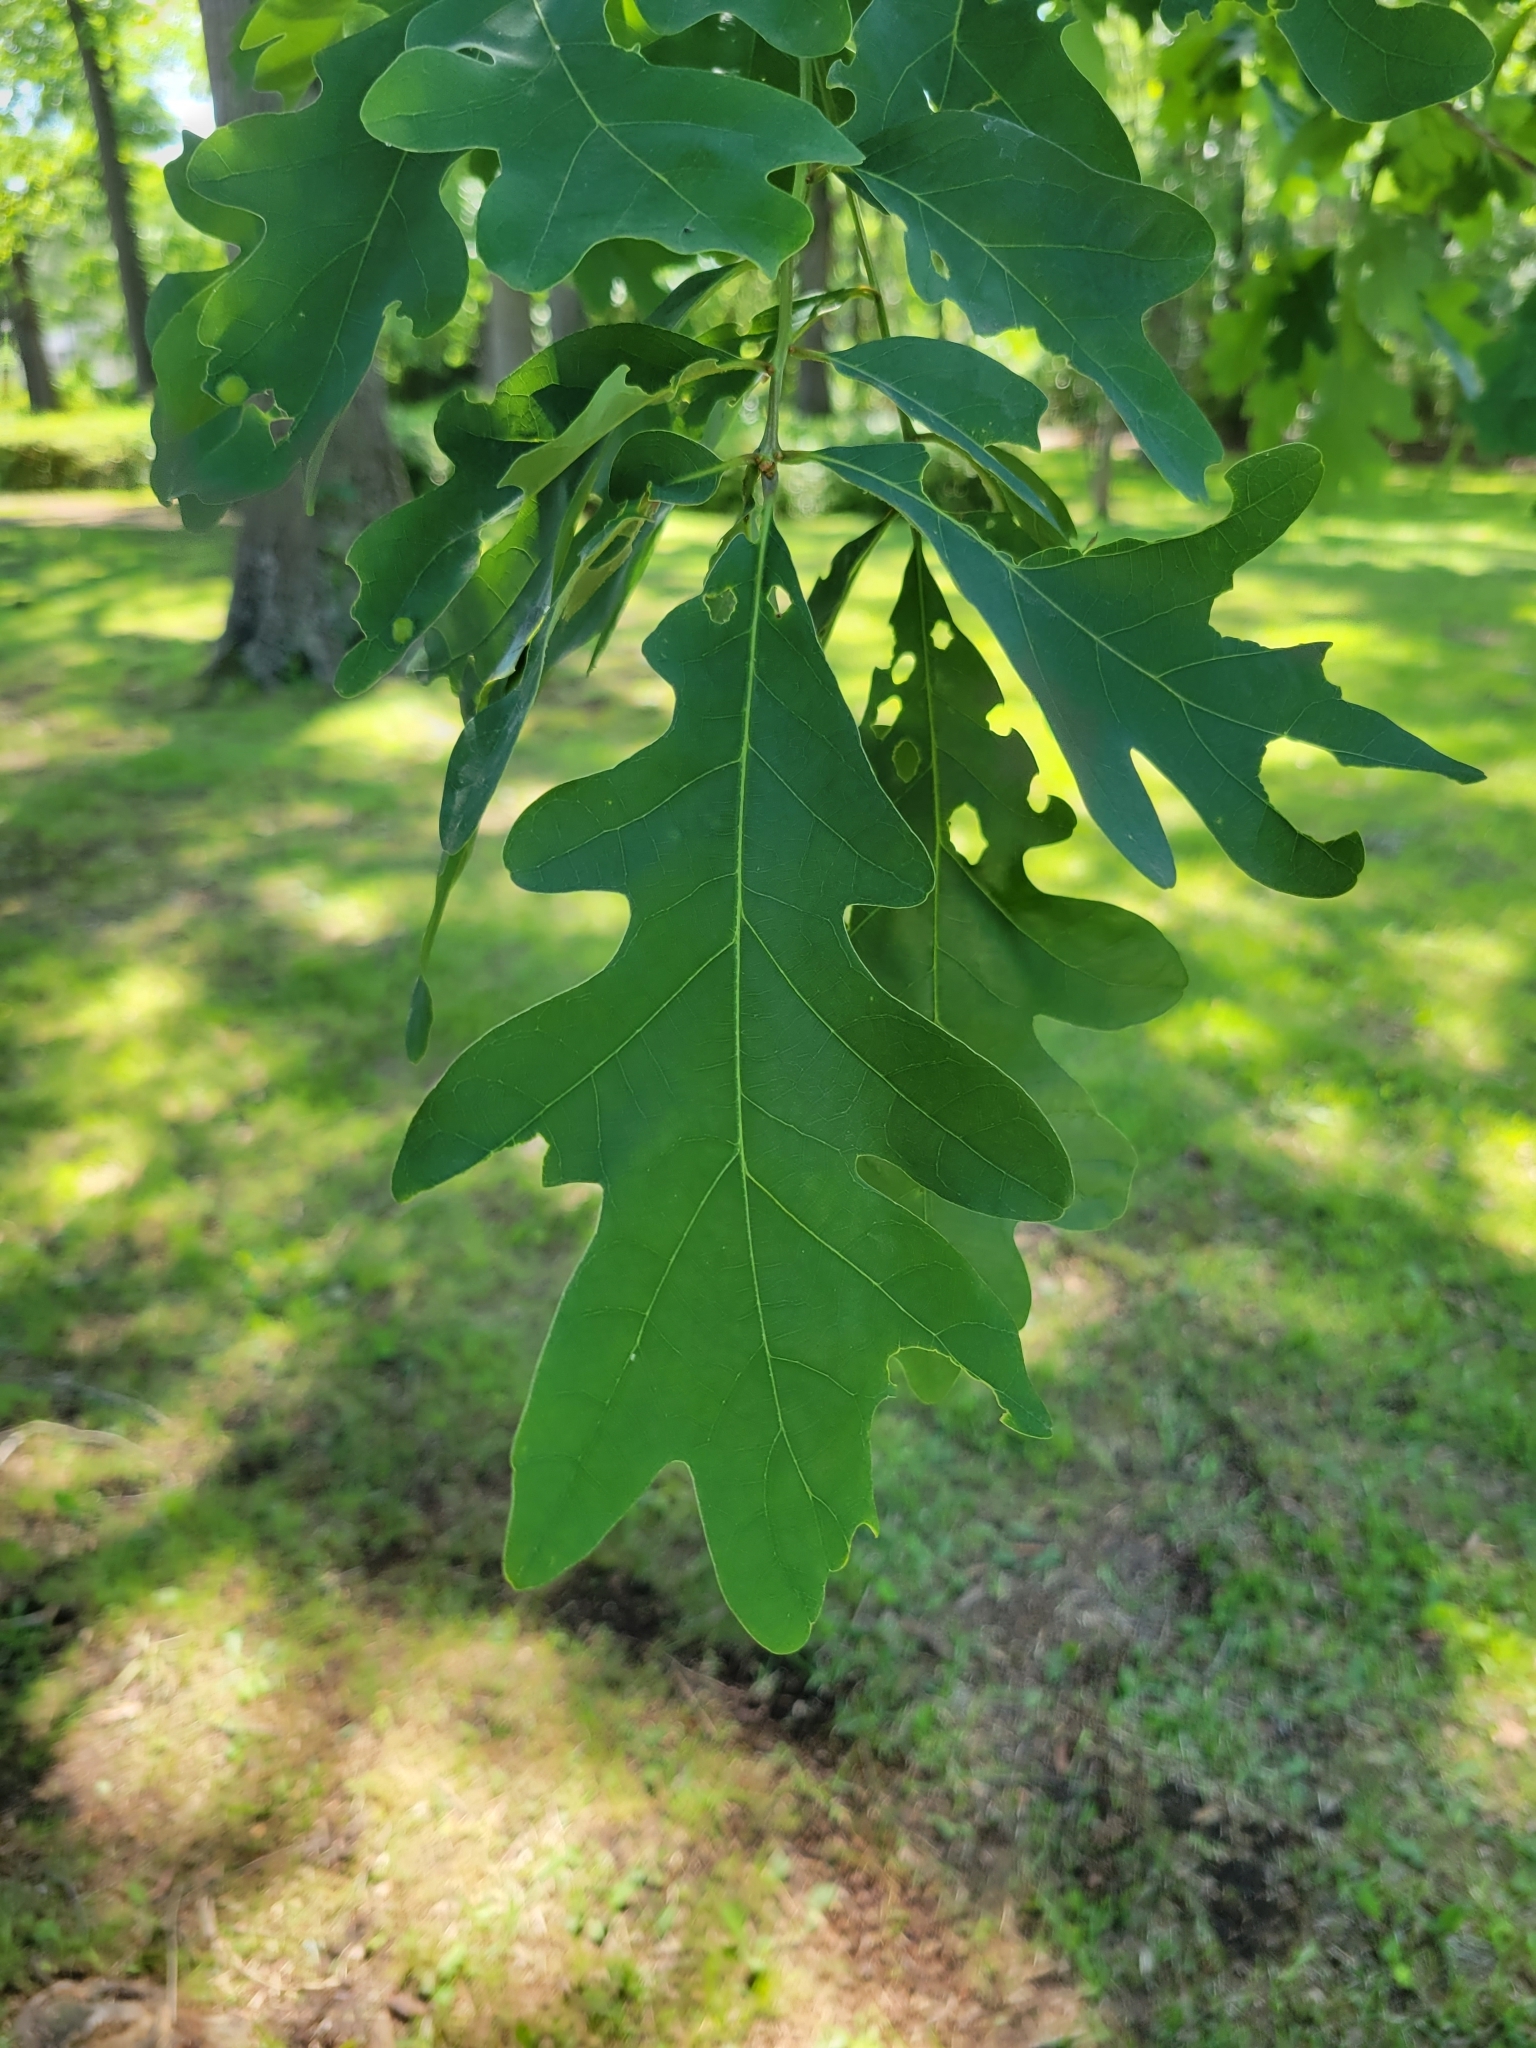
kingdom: Plantae
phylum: Tracheophyta
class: Magnoliopsida
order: Fagales
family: Fagaceae
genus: Quercus
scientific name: Quercus alba
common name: White oak
